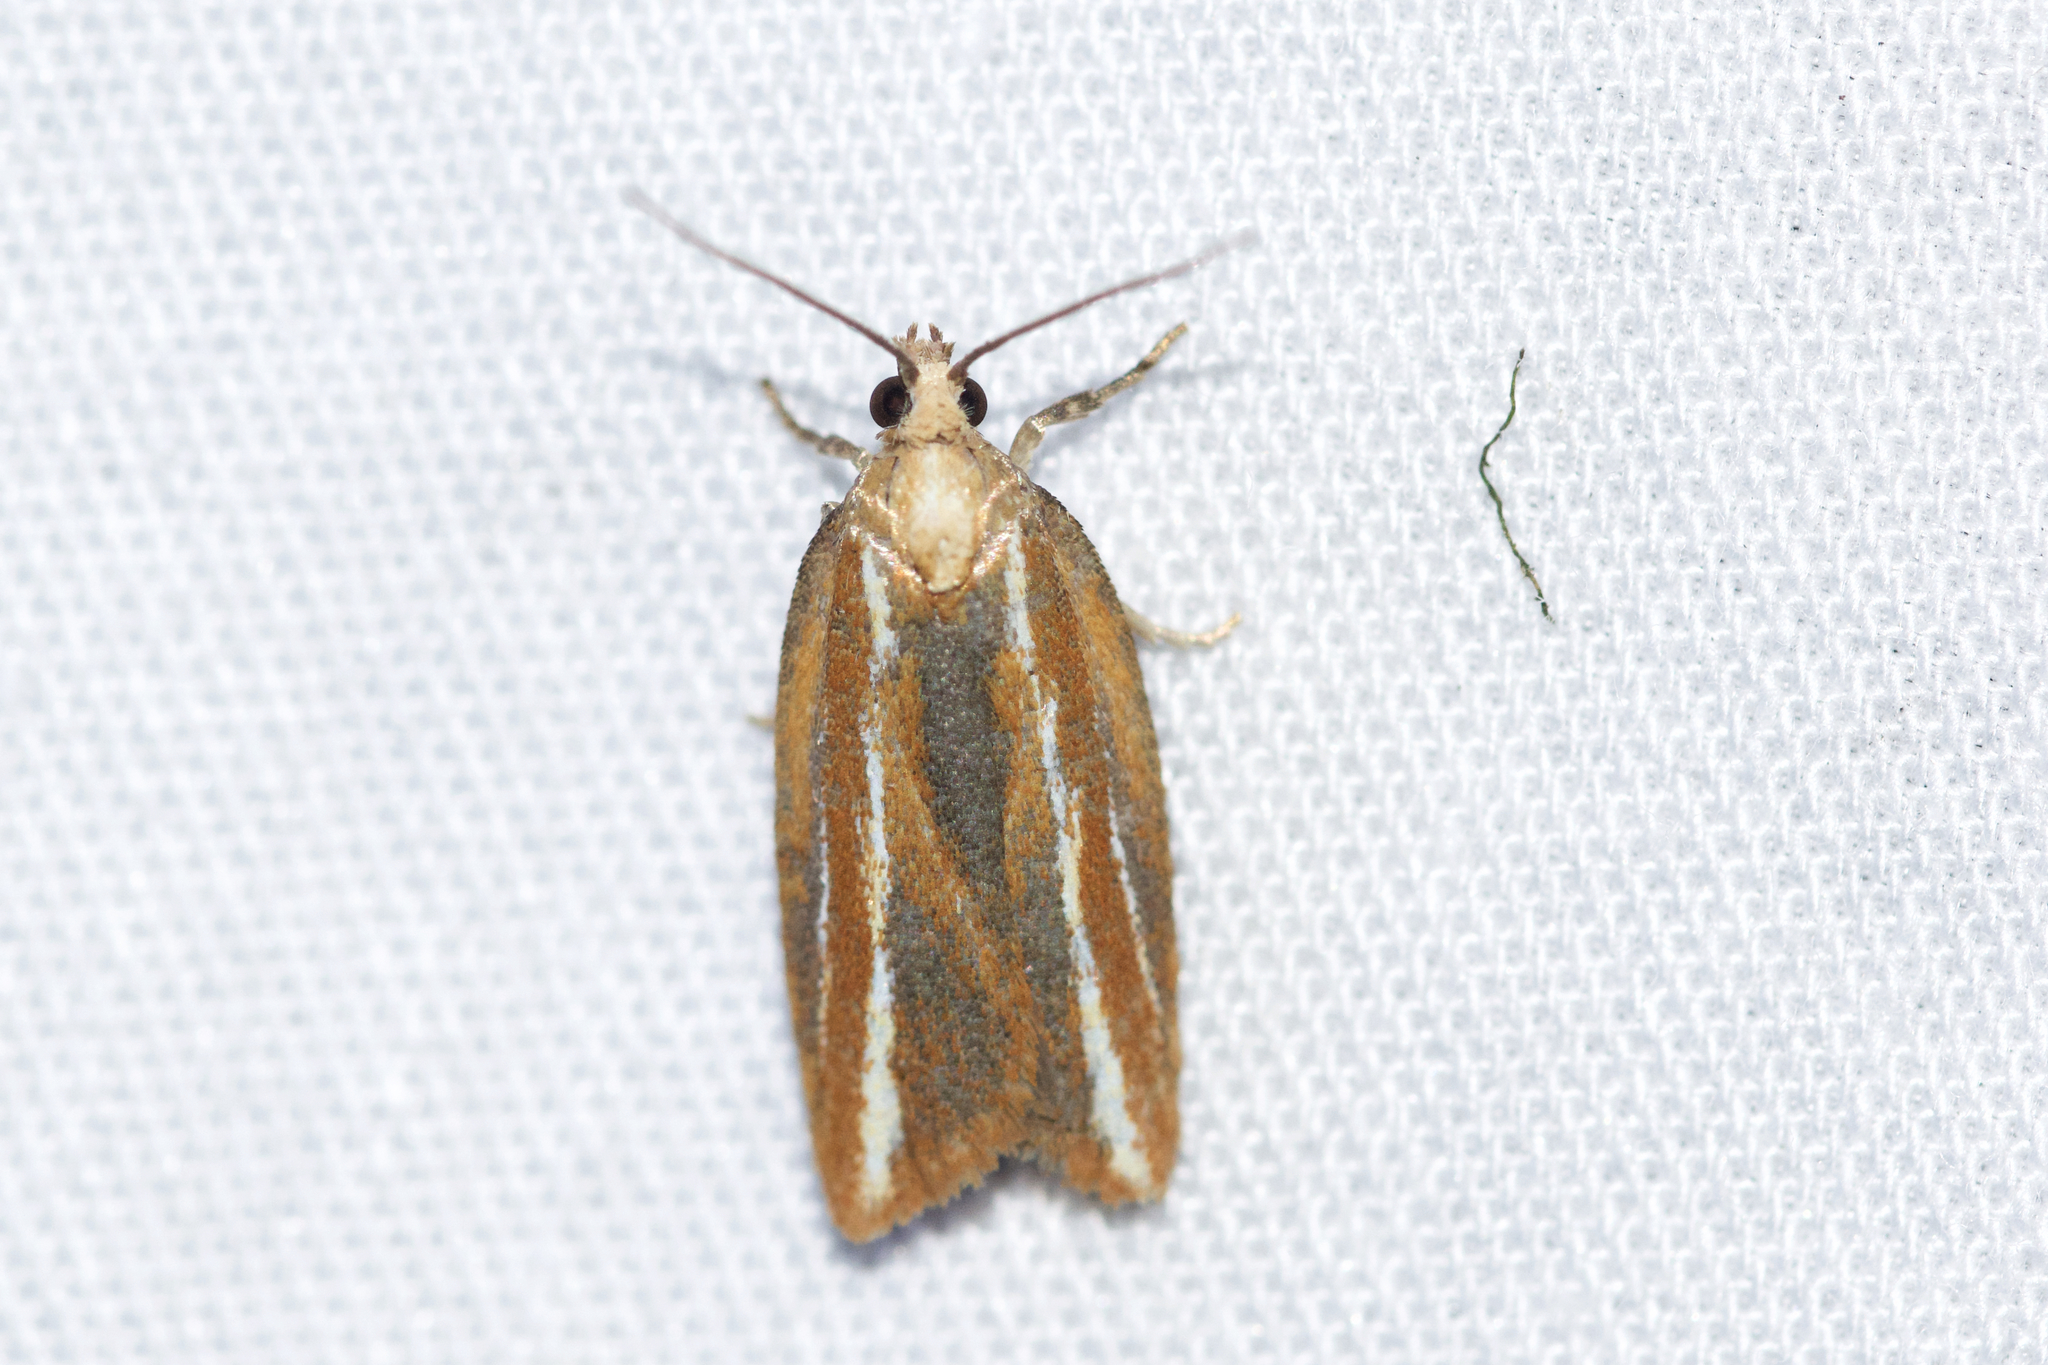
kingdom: Animalia
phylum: Arthropoda
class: Insecta
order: Lepidoptera
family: Tortricidae
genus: Acleris
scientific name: Acleris variana
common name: Eastern black-headed budworm moth
